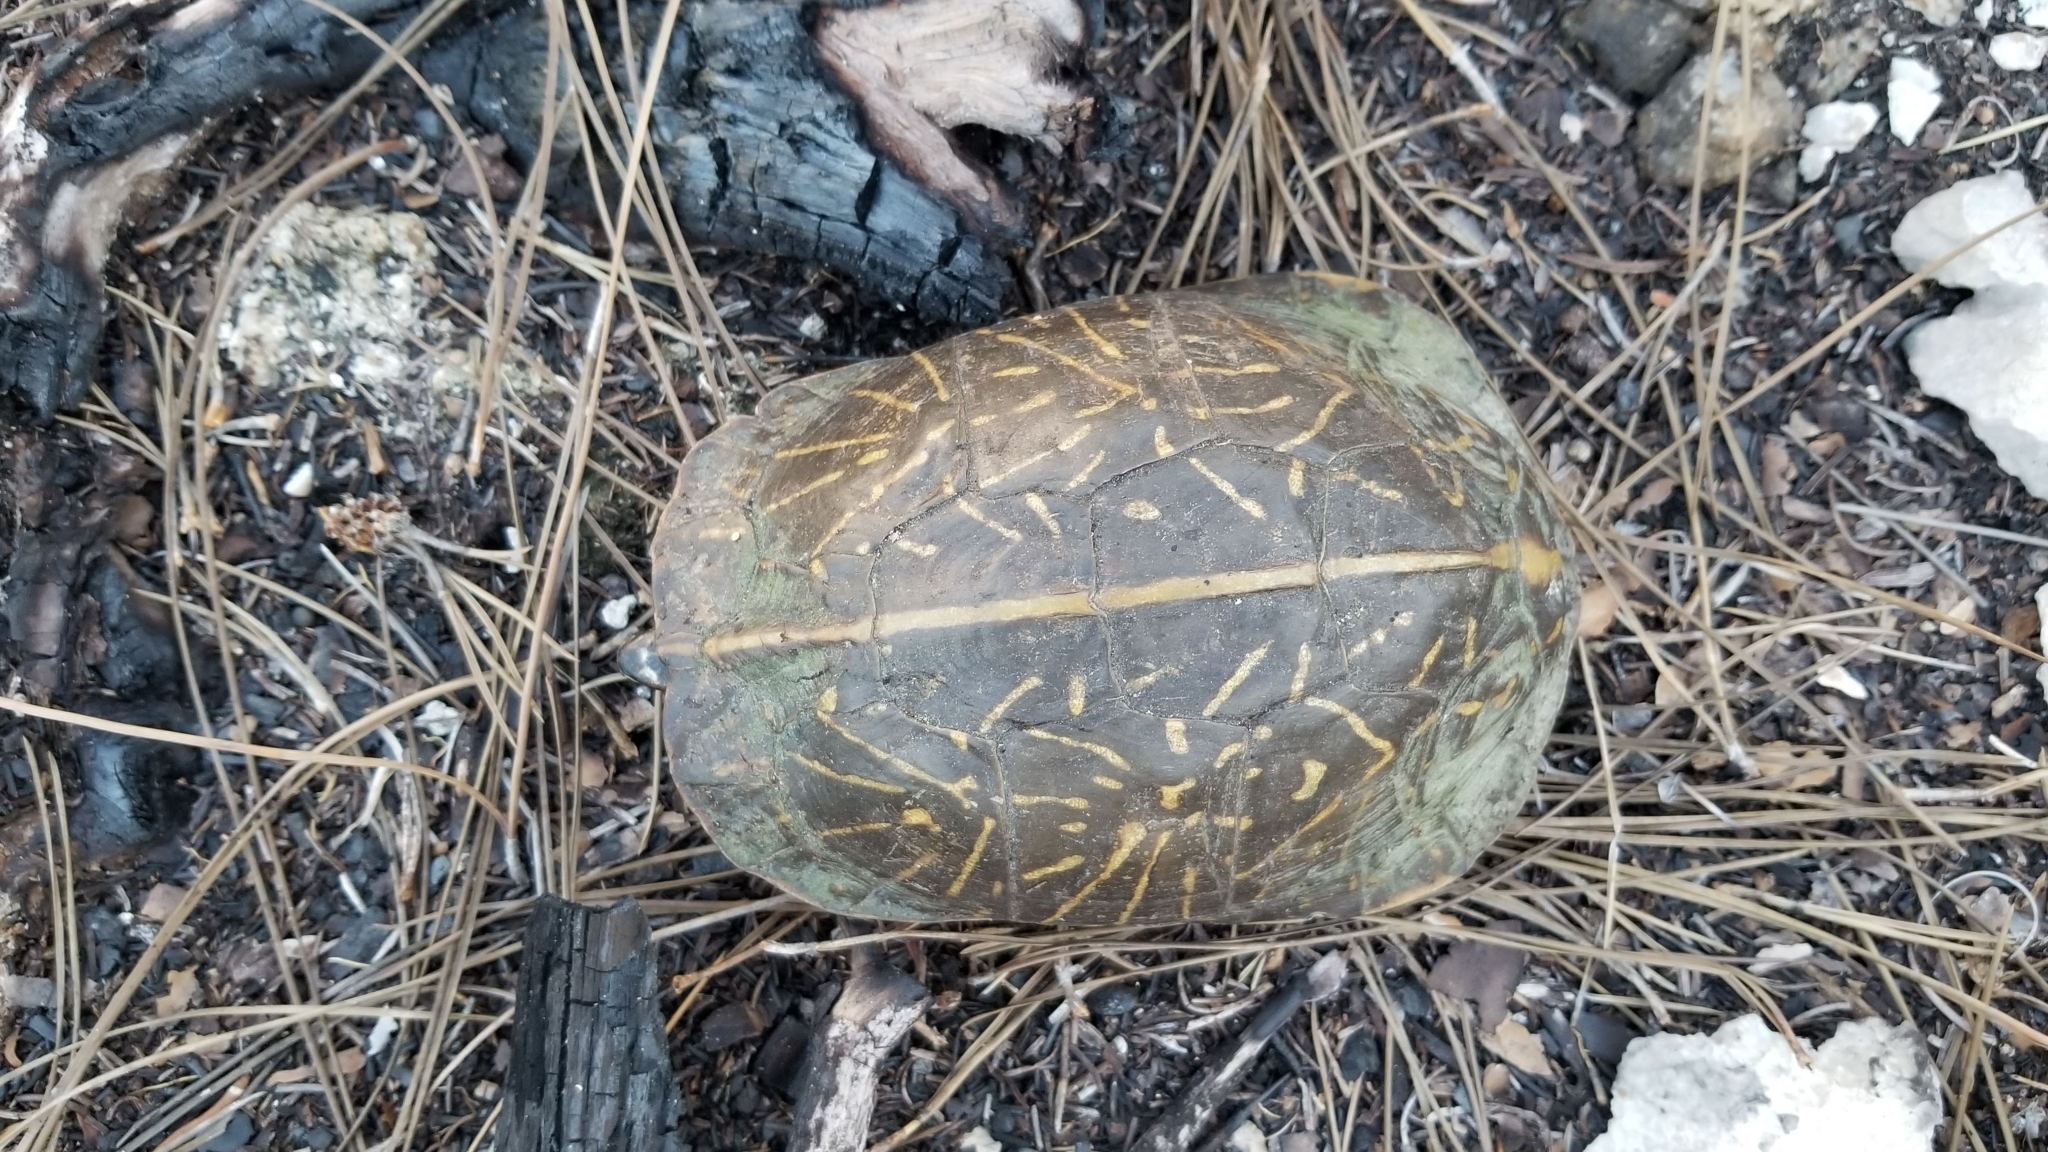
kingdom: Animalia
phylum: Chordata
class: Testudines
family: Emydidae
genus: Terrapene
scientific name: Terrapene carolina
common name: Common box turtle
